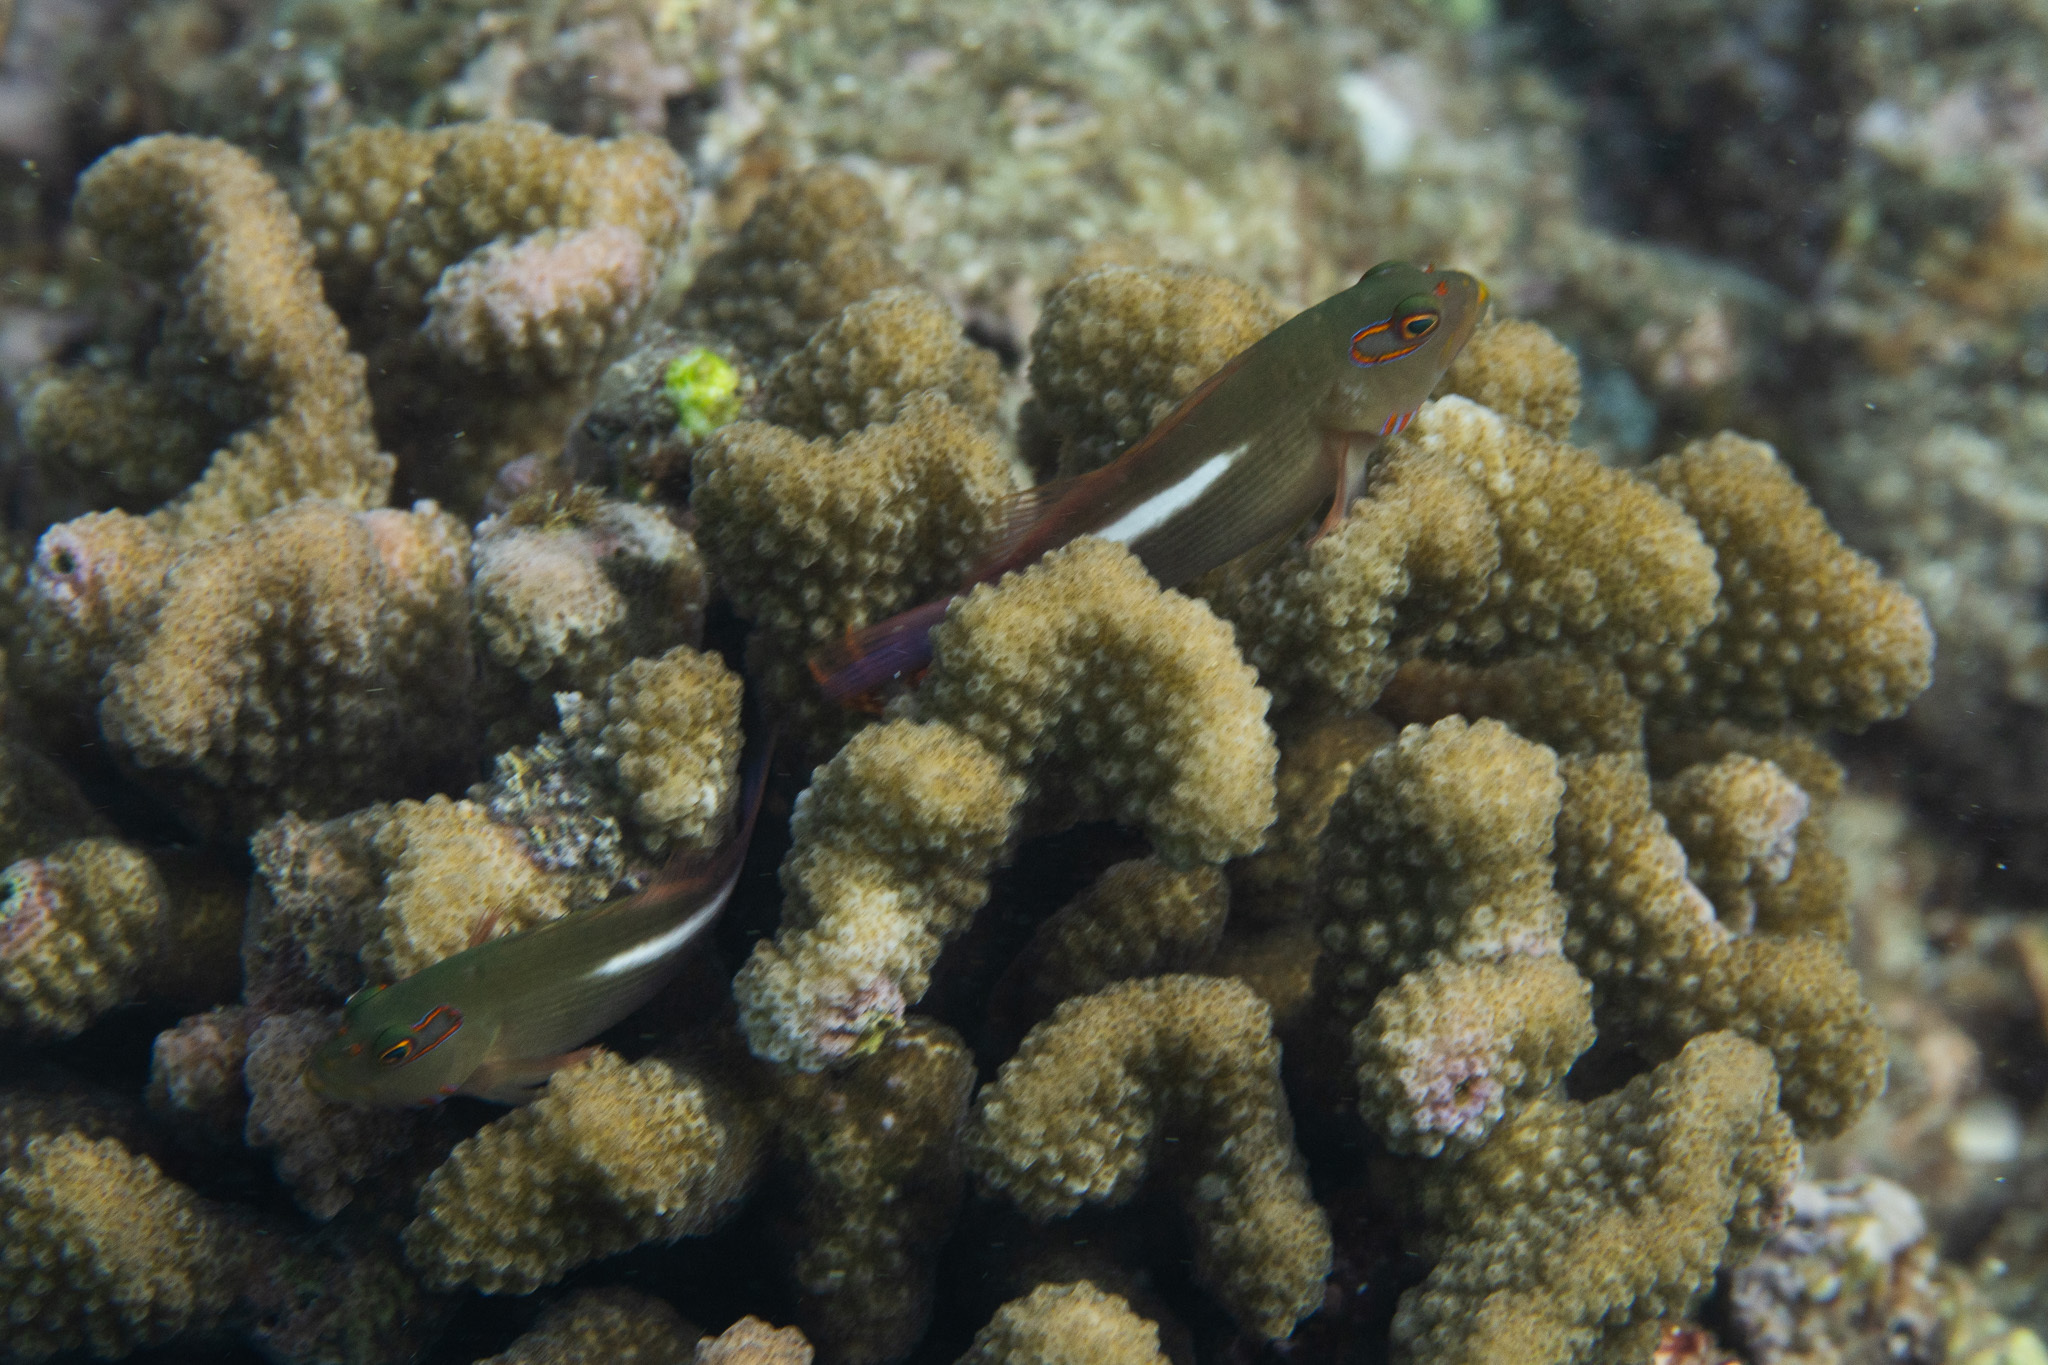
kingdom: Animalia
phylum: Chordata
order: Perciformes
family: Cirrhitidae
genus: Paracirrhites
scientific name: Paracirrhites arcatus
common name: Arc-eye hawkfish
